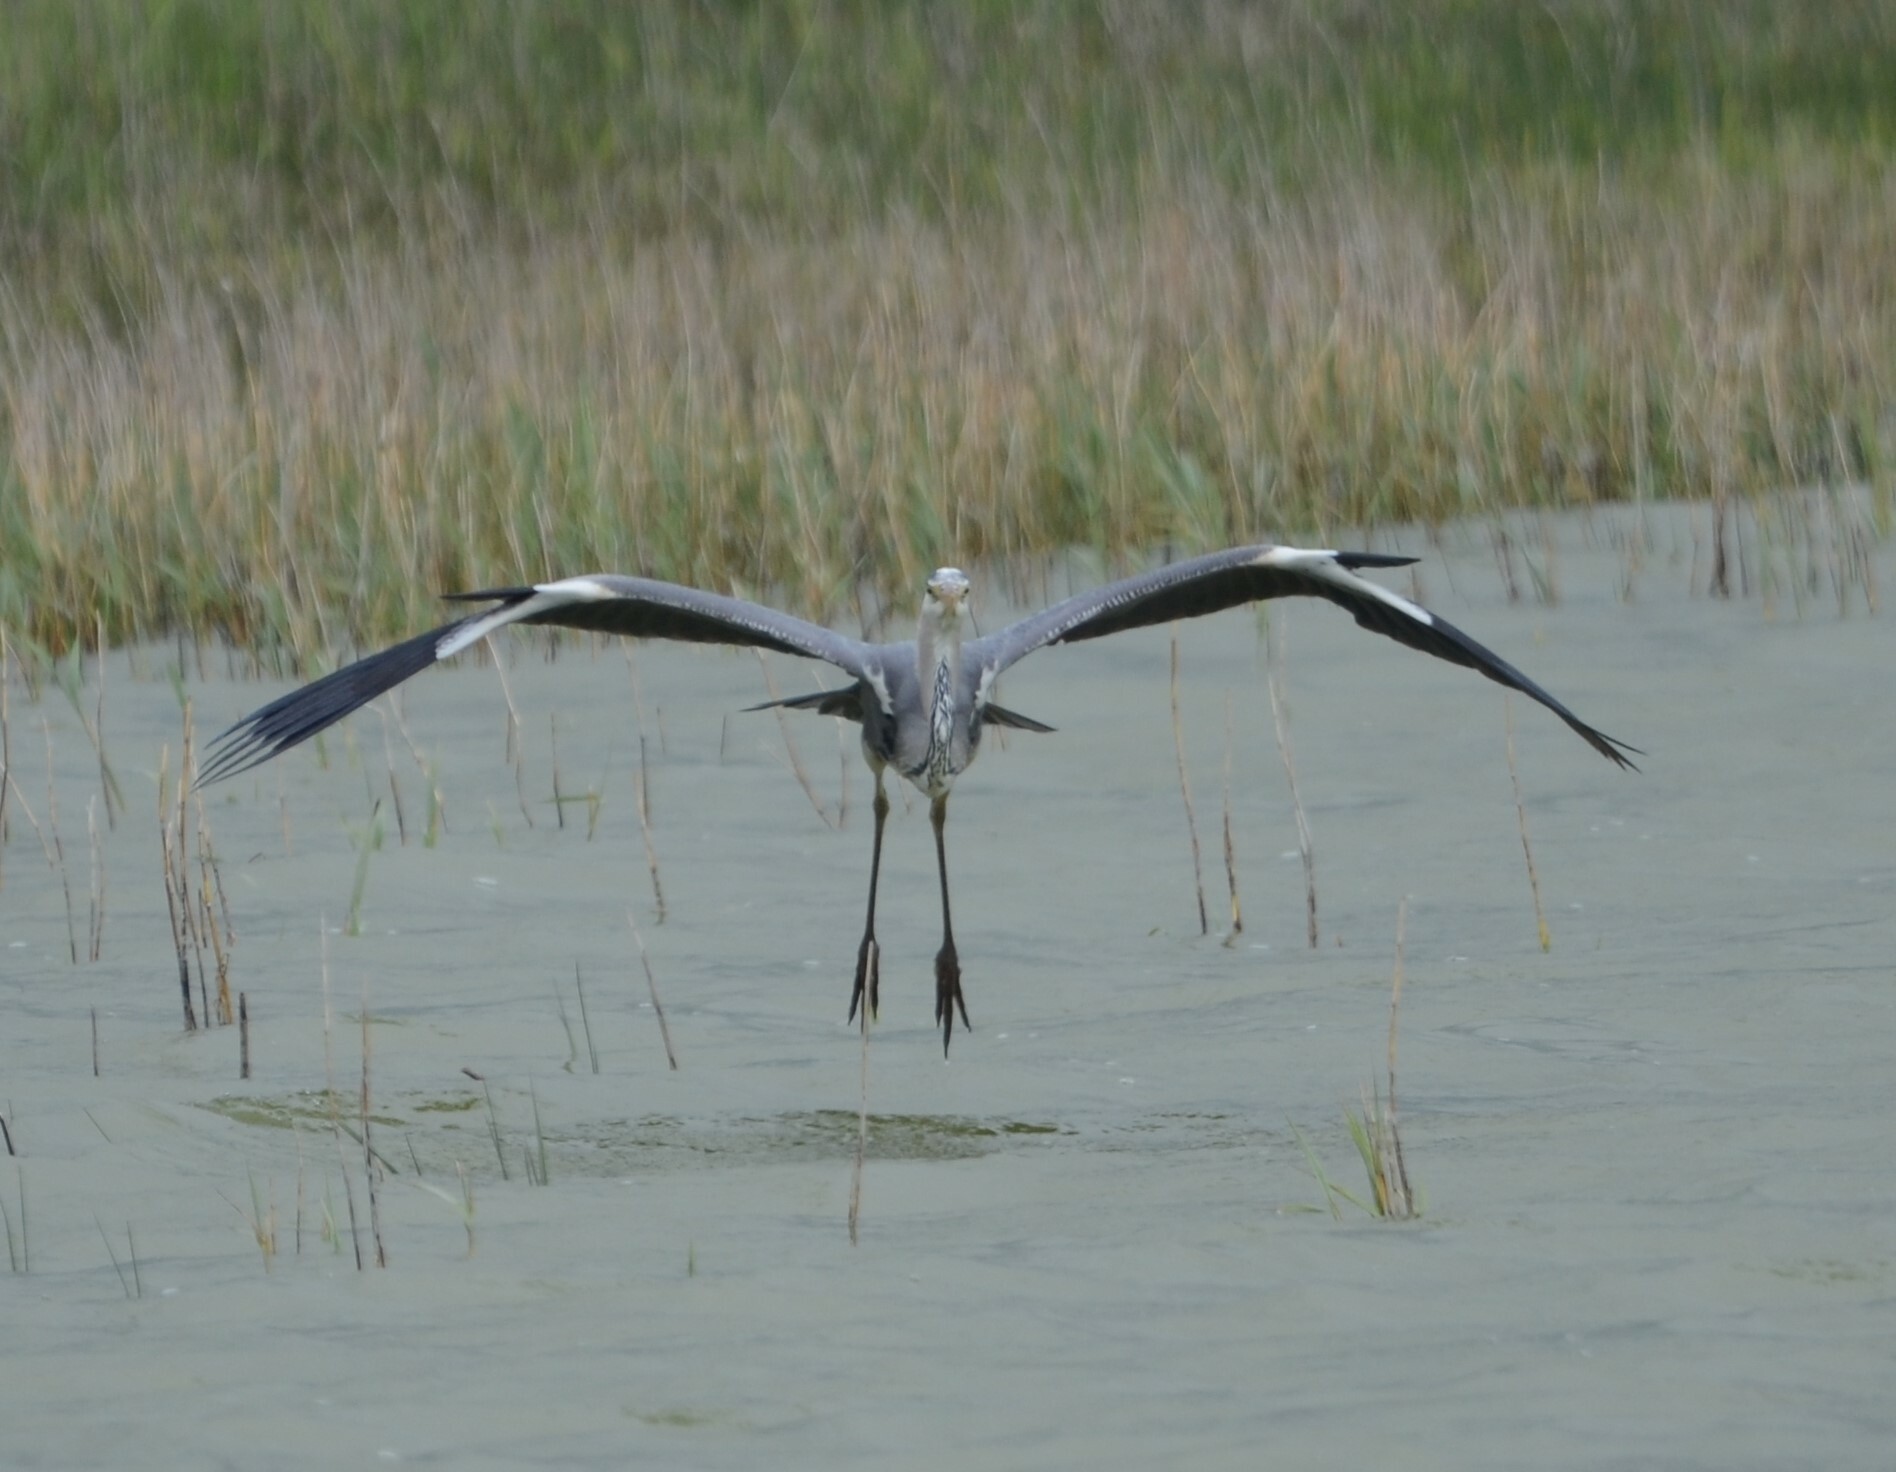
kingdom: Animalia
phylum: Chordata
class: Aves
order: Pelecaniformes
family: Ardeidae
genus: Ardea
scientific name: Ardea cinerea
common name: Grey heron
